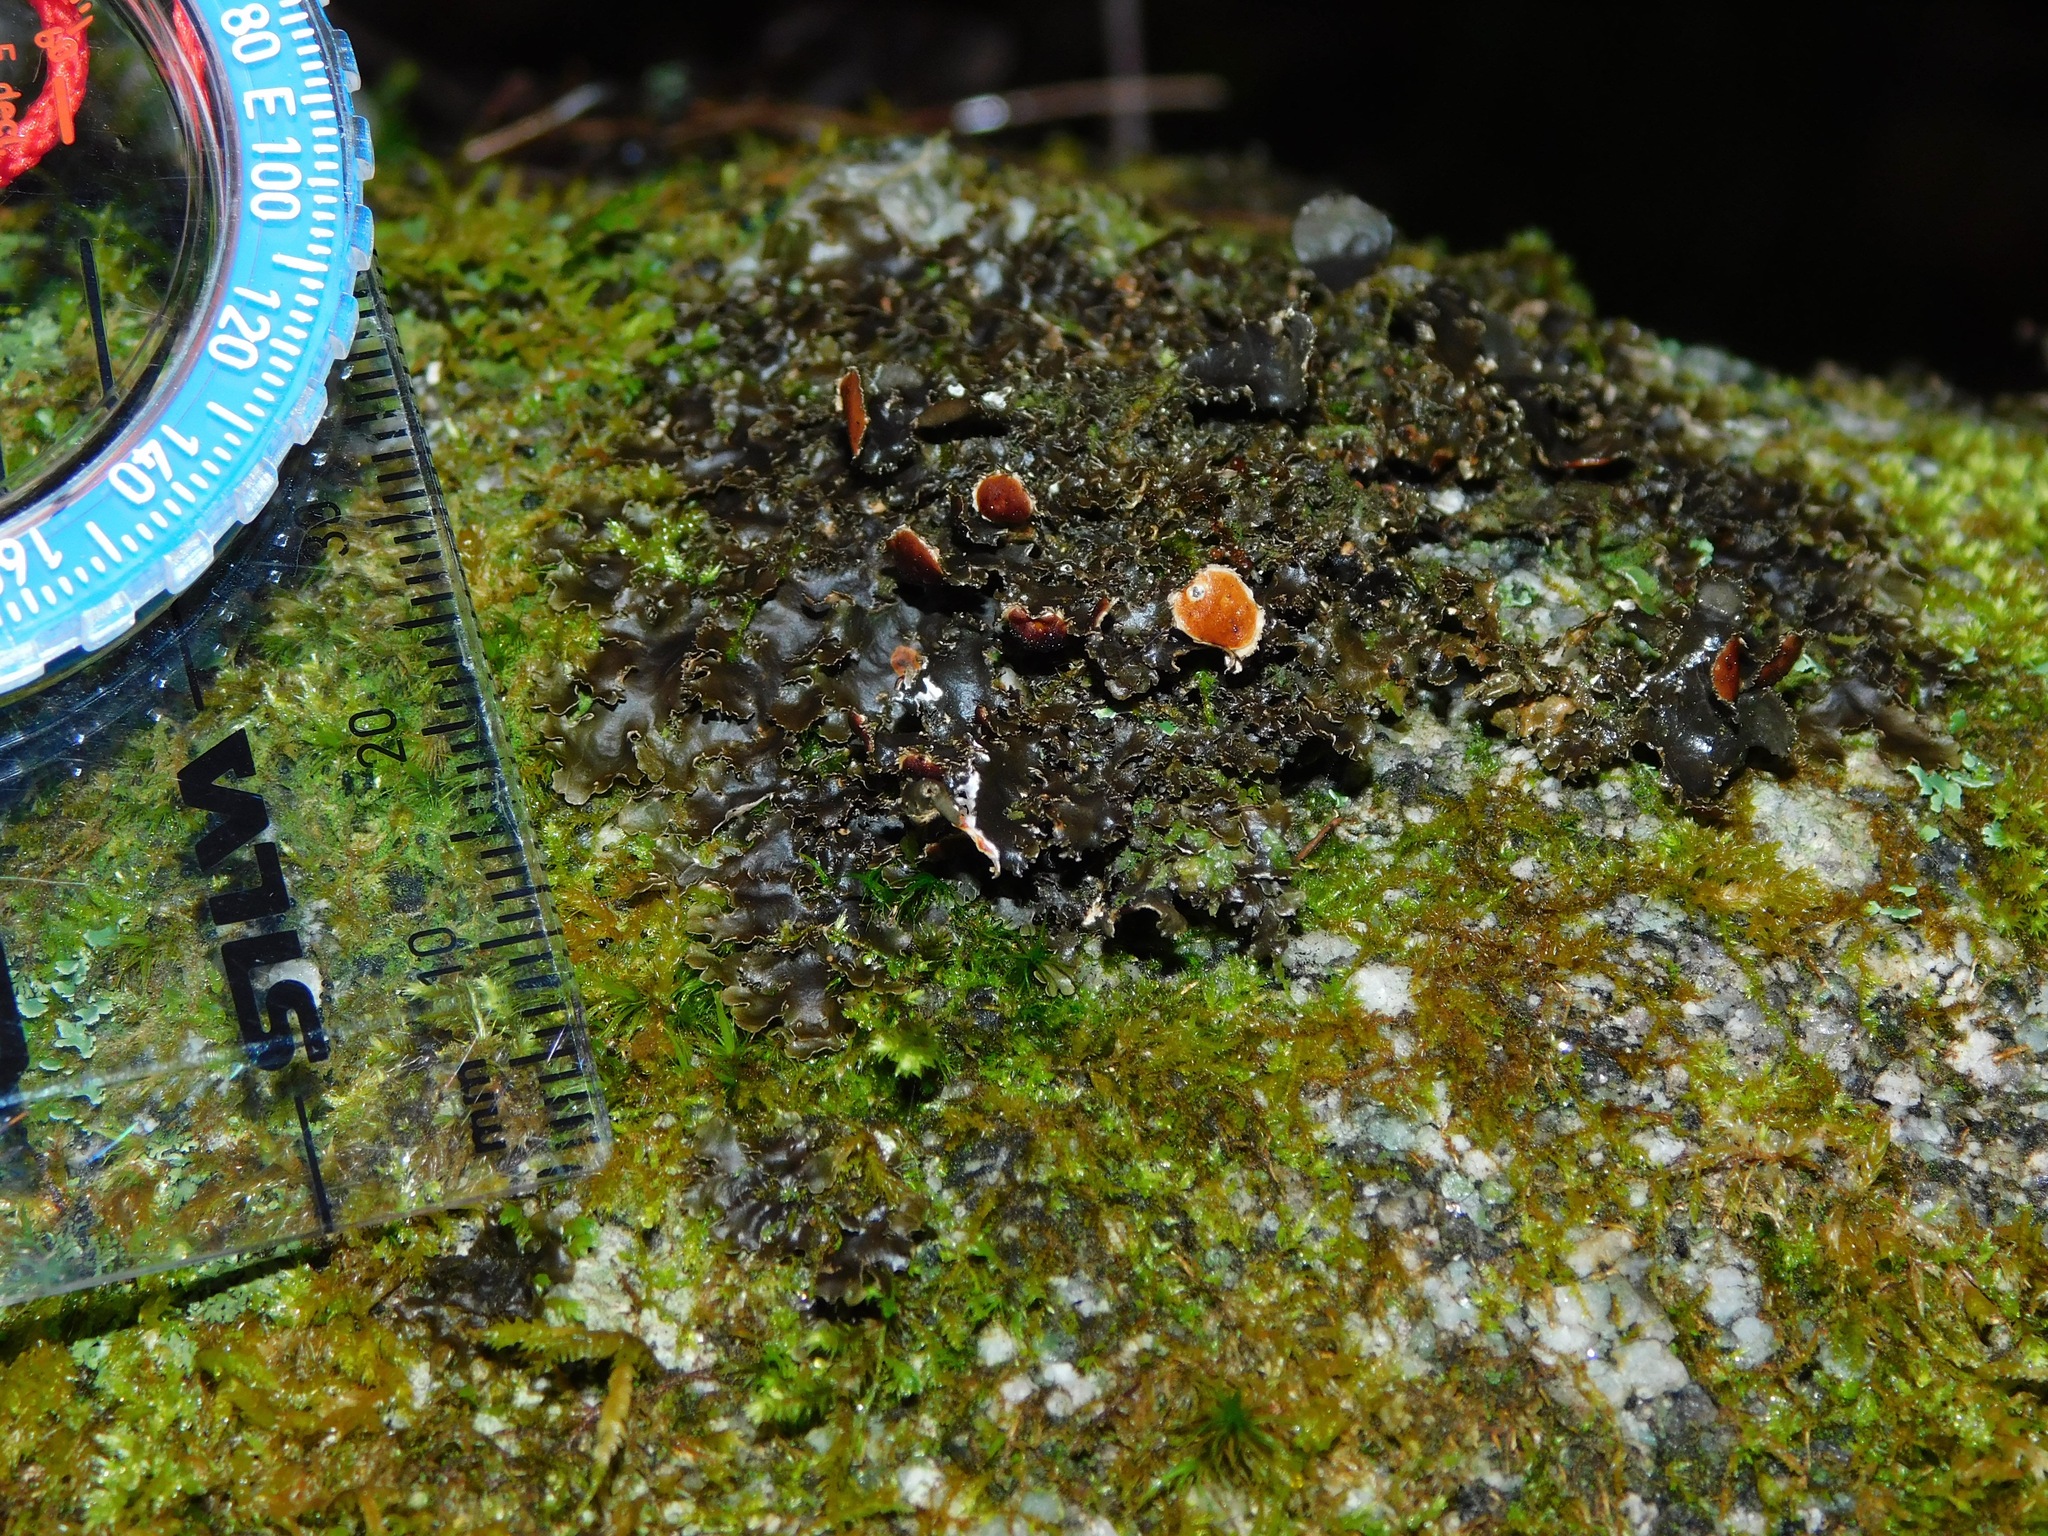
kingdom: Fungi
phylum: Ascomycota
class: Lecanoromycetes
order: Peltigerales
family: Nephromataceae
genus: Nephroma
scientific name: Nephroma helveticum
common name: Fringed kidney lichen
